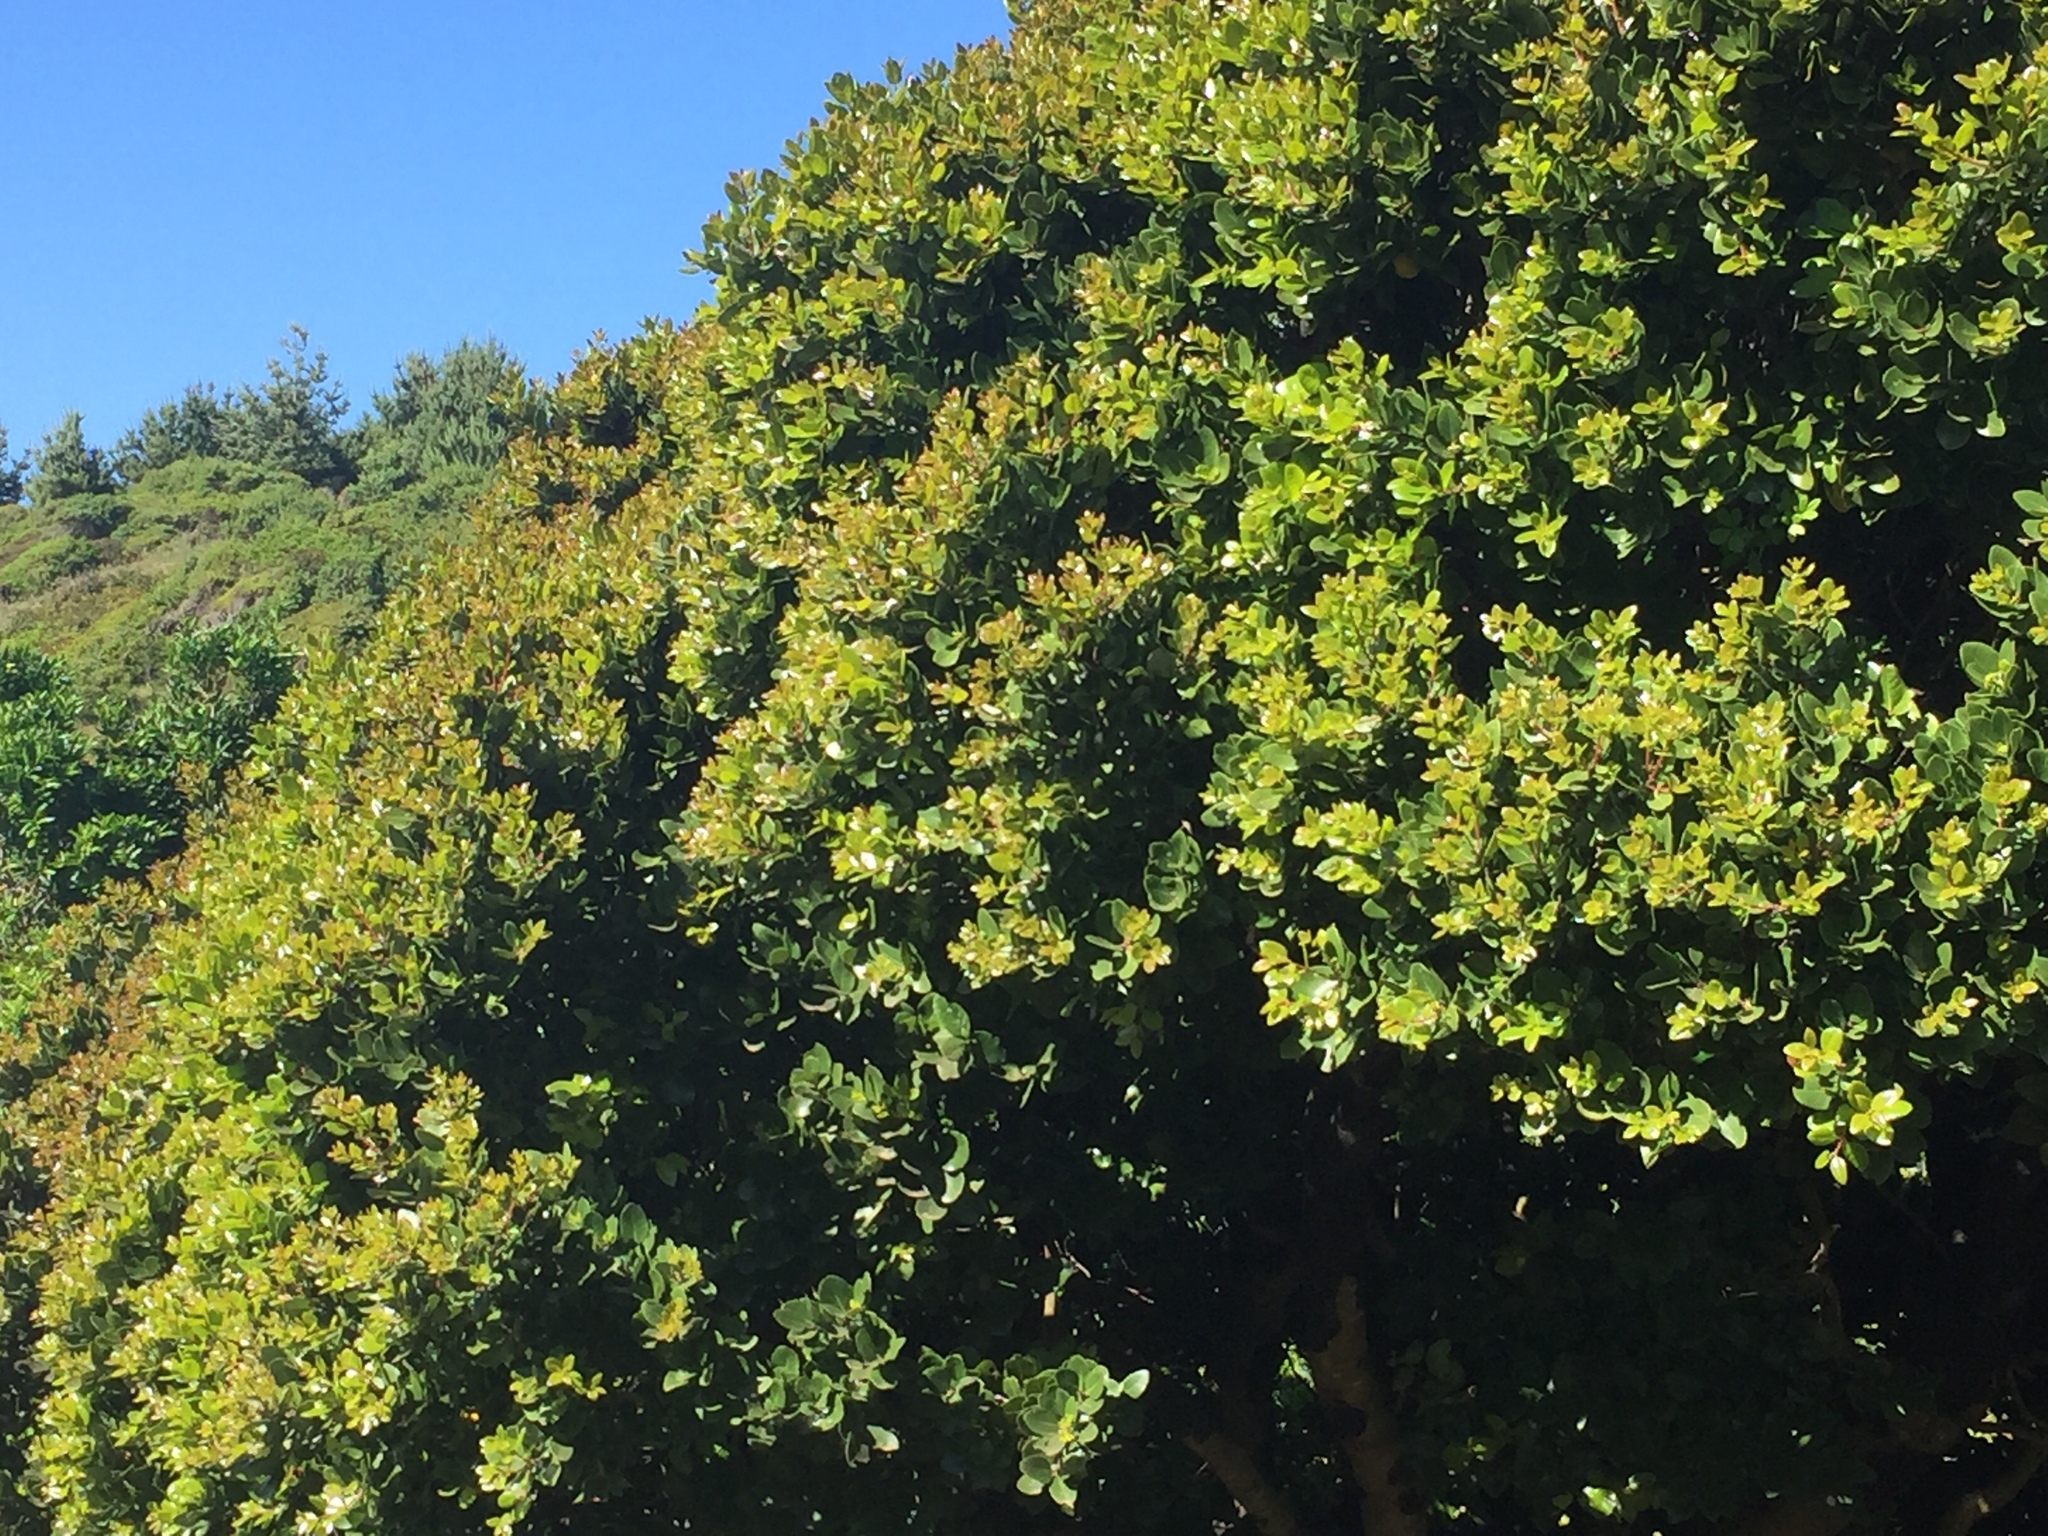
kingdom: Plantae
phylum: Tracheophyta
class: Magnoliopsida
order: Laurales
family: Lauraceae
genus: Cryptocarya
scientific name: Cryptocarya alba
